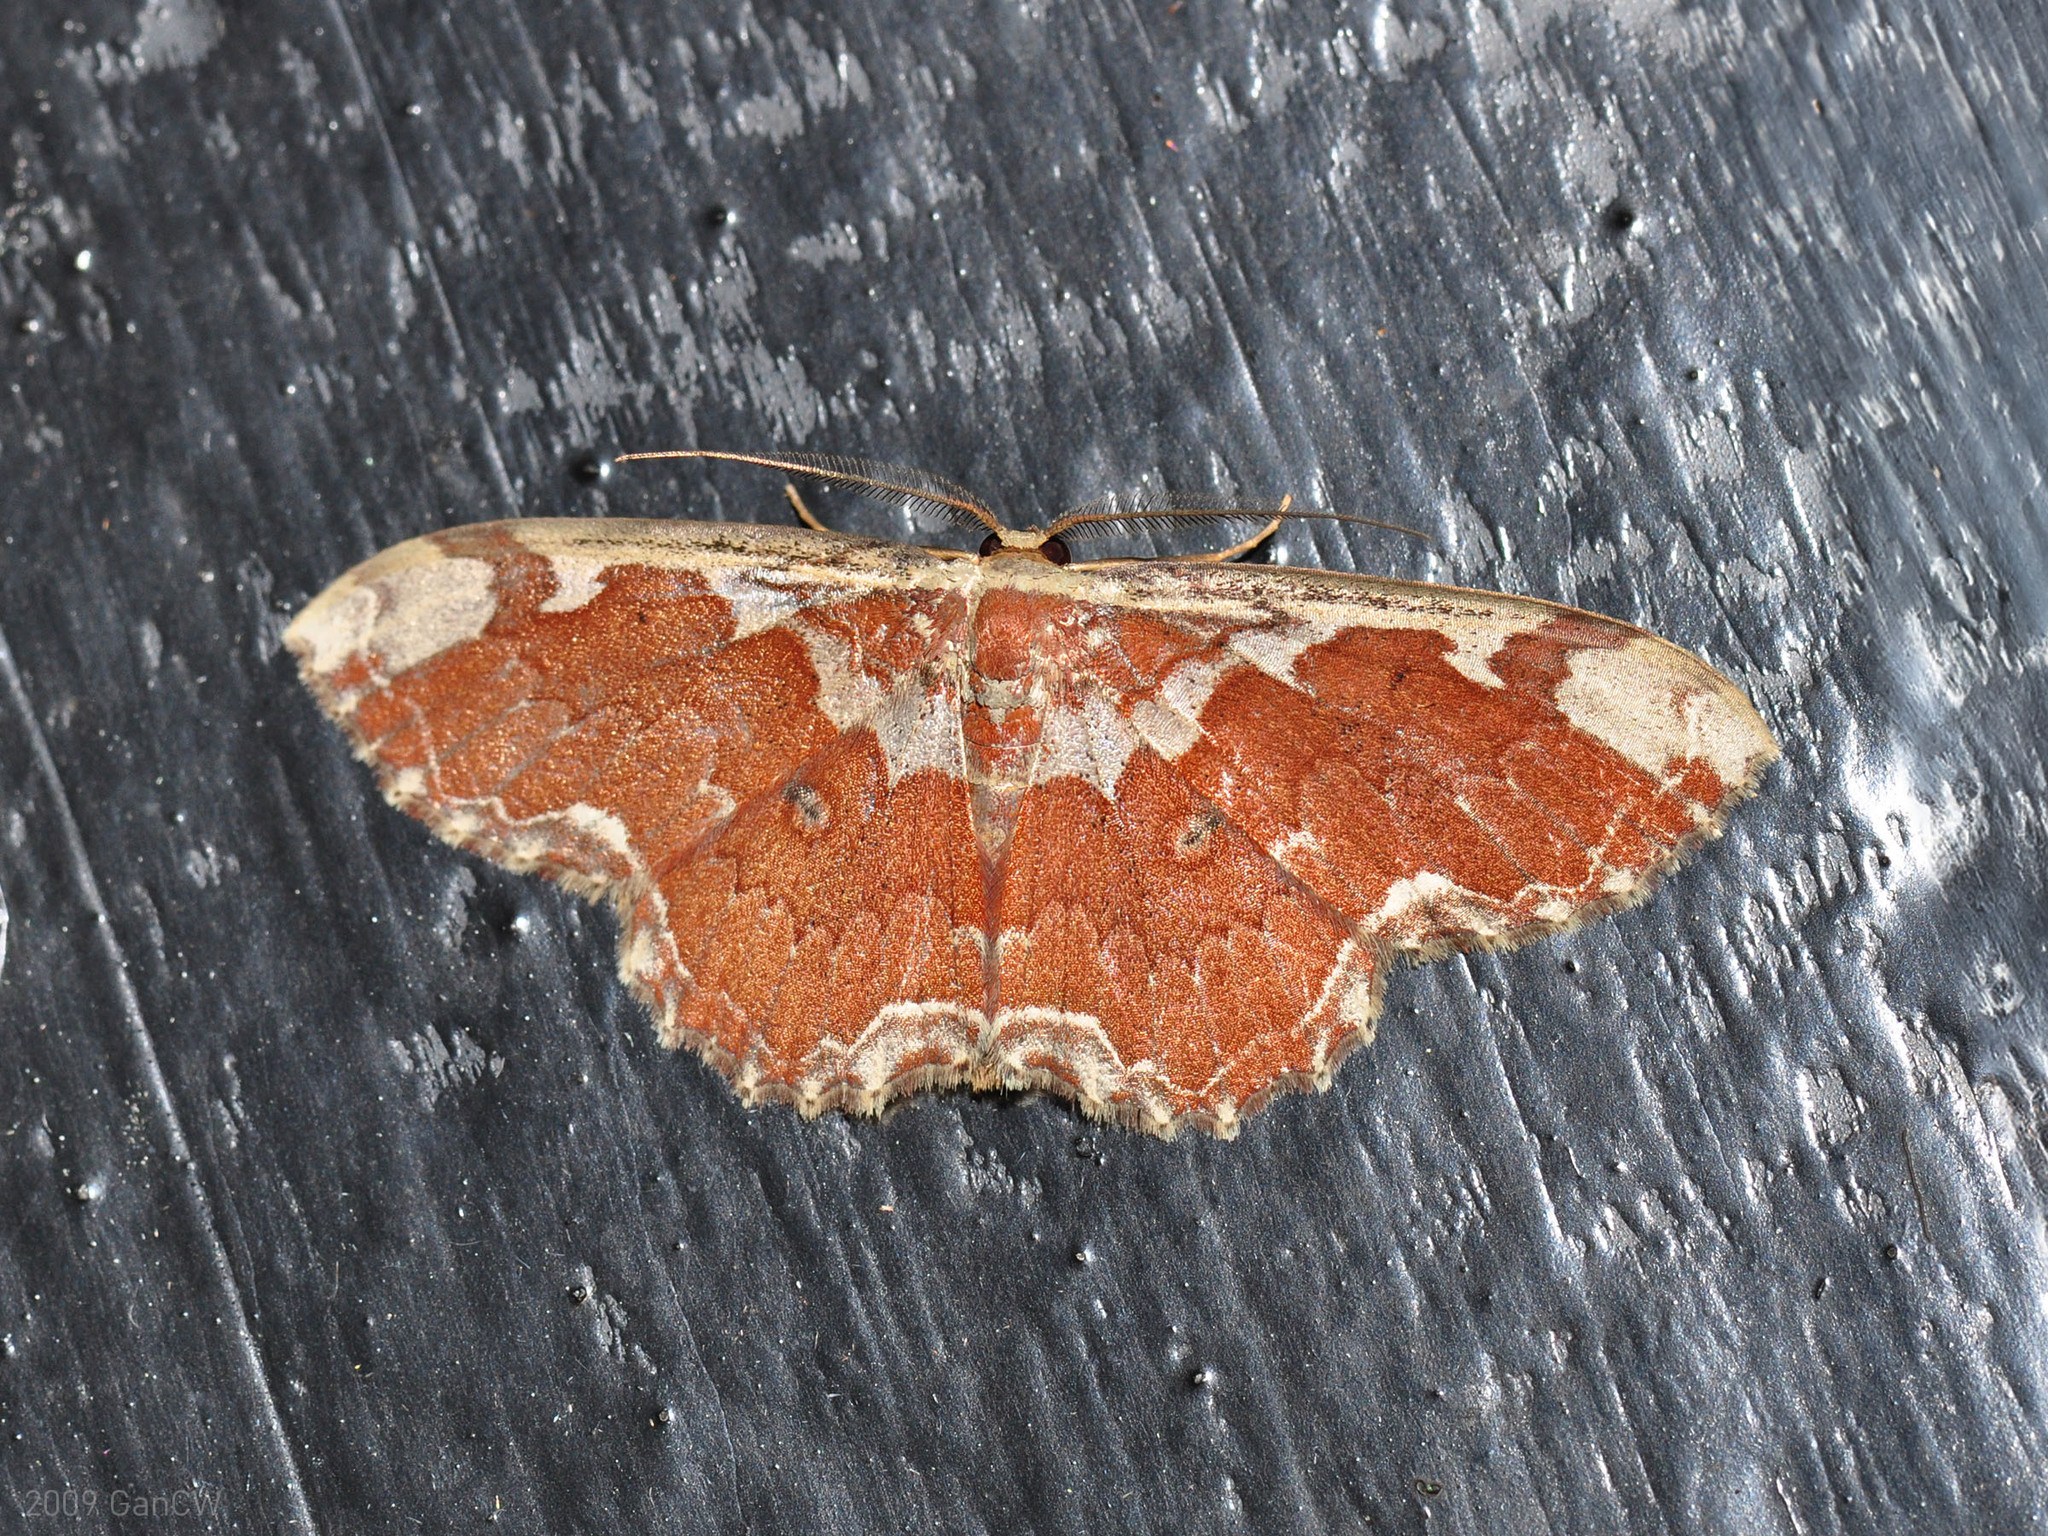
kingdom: Animalia
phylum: Arthropoda
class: Insecta
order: Lepidoptera
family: Geometridae
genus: Orthoserica
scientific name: Orthoserica rufigrisea
